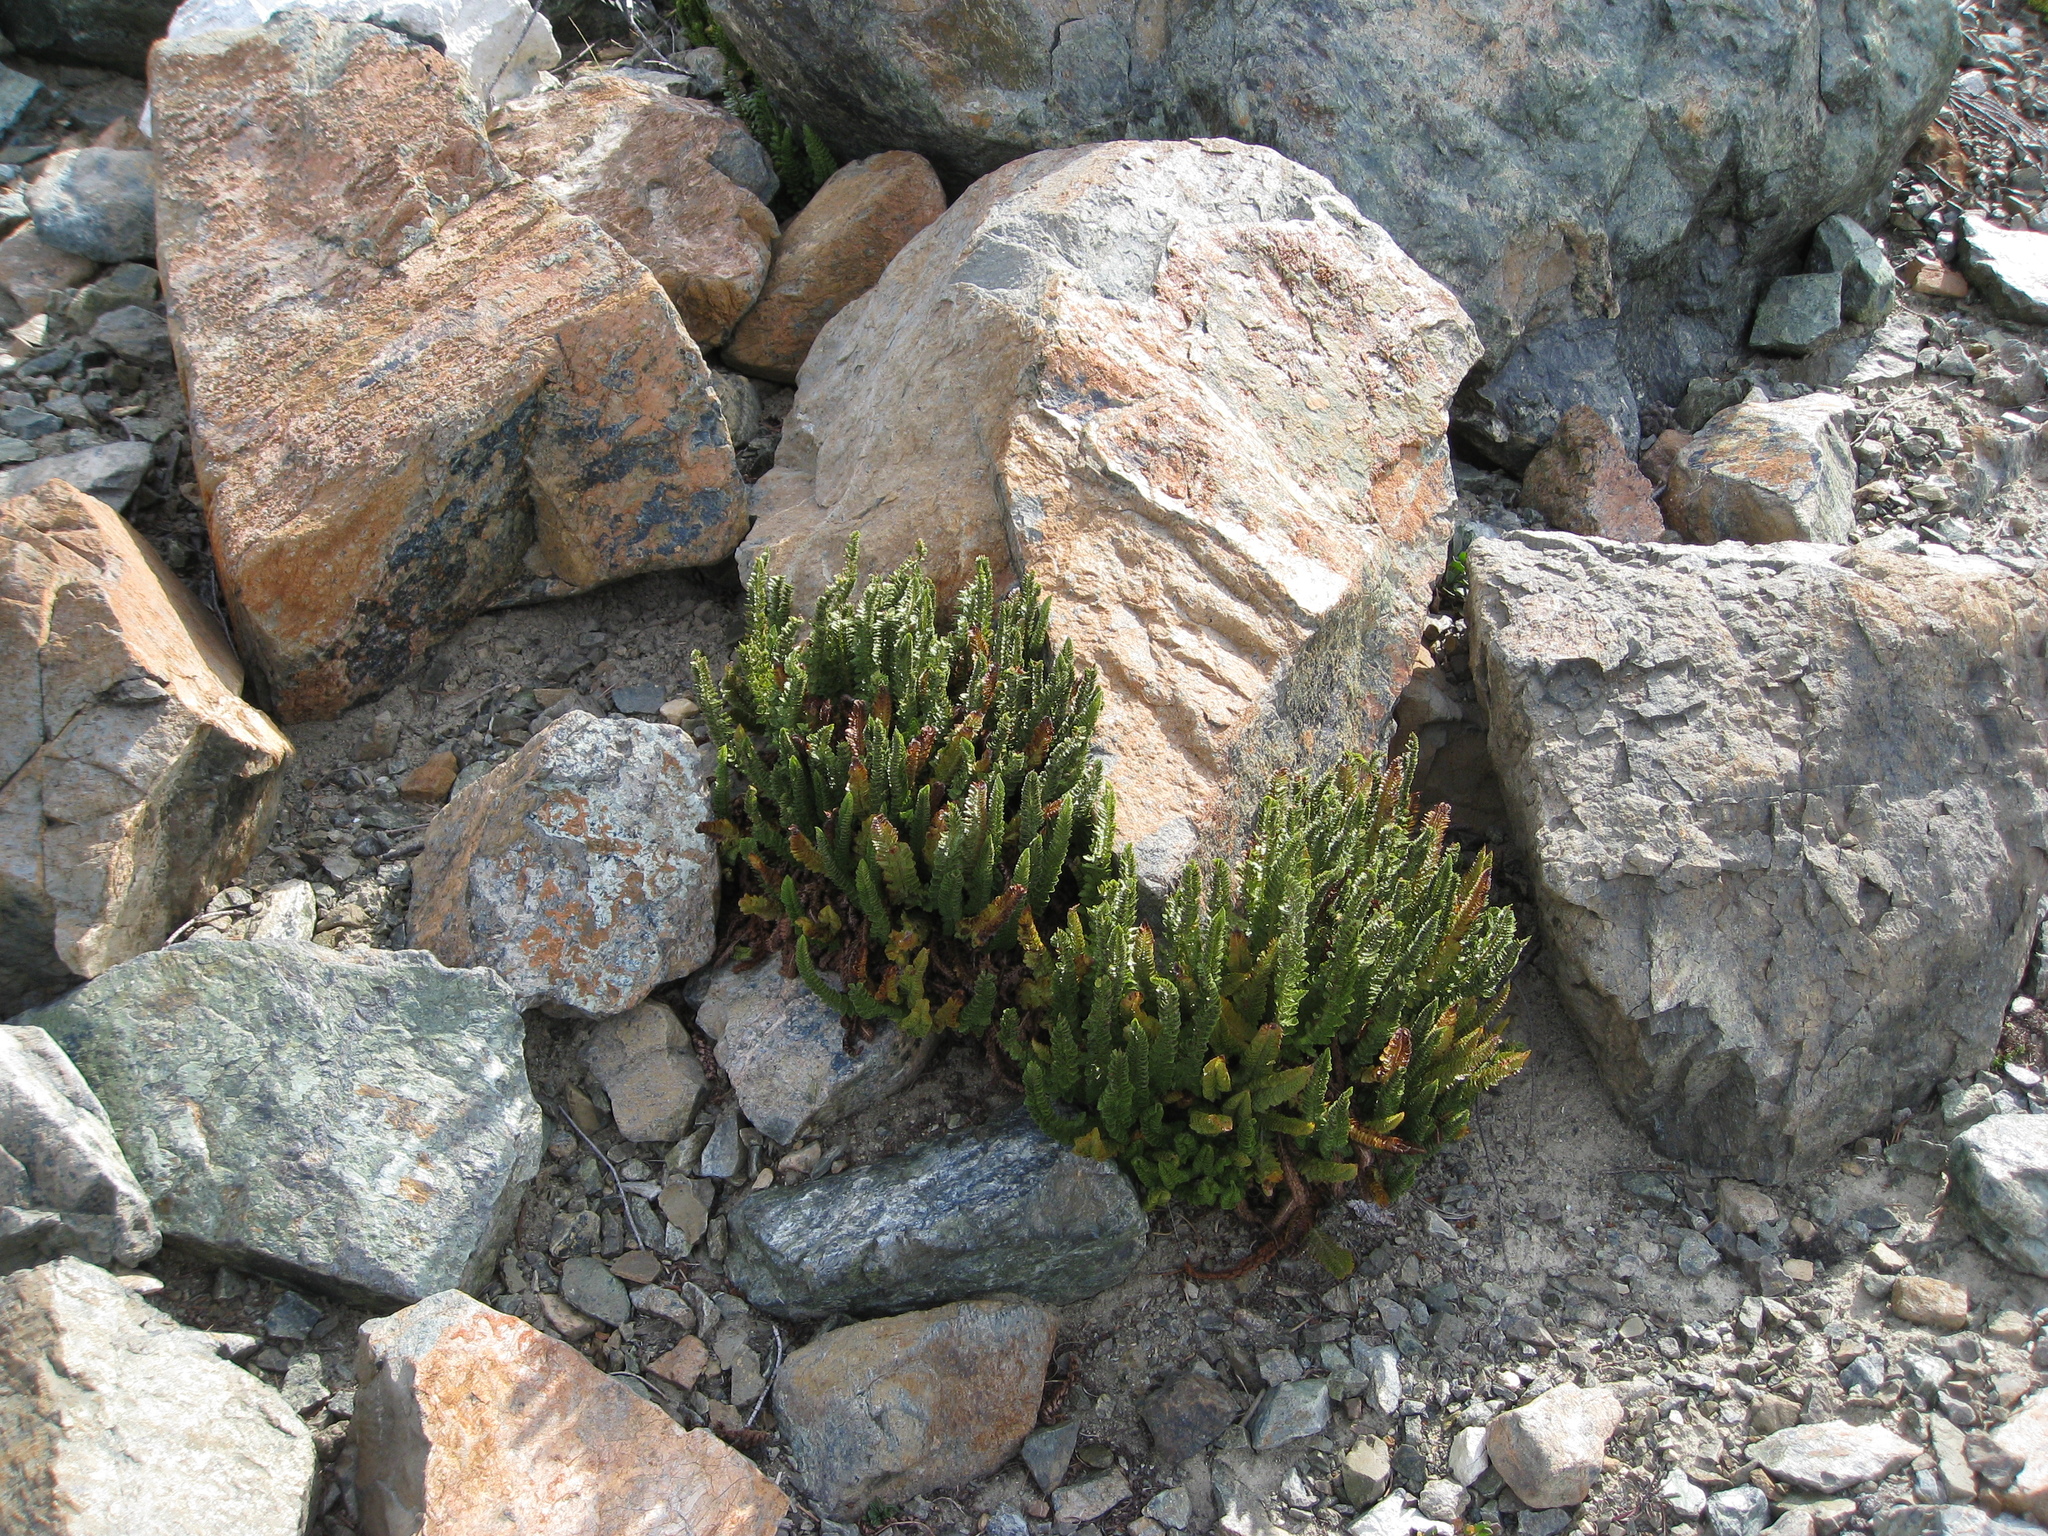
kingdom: Plantae
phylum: Tracheophyta
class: Polypodiopsida
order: Polypodiales
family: Dryopteridaceae
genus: Polystichum
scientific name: Polystichum lemmonii
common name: Lemmon's holly fern
